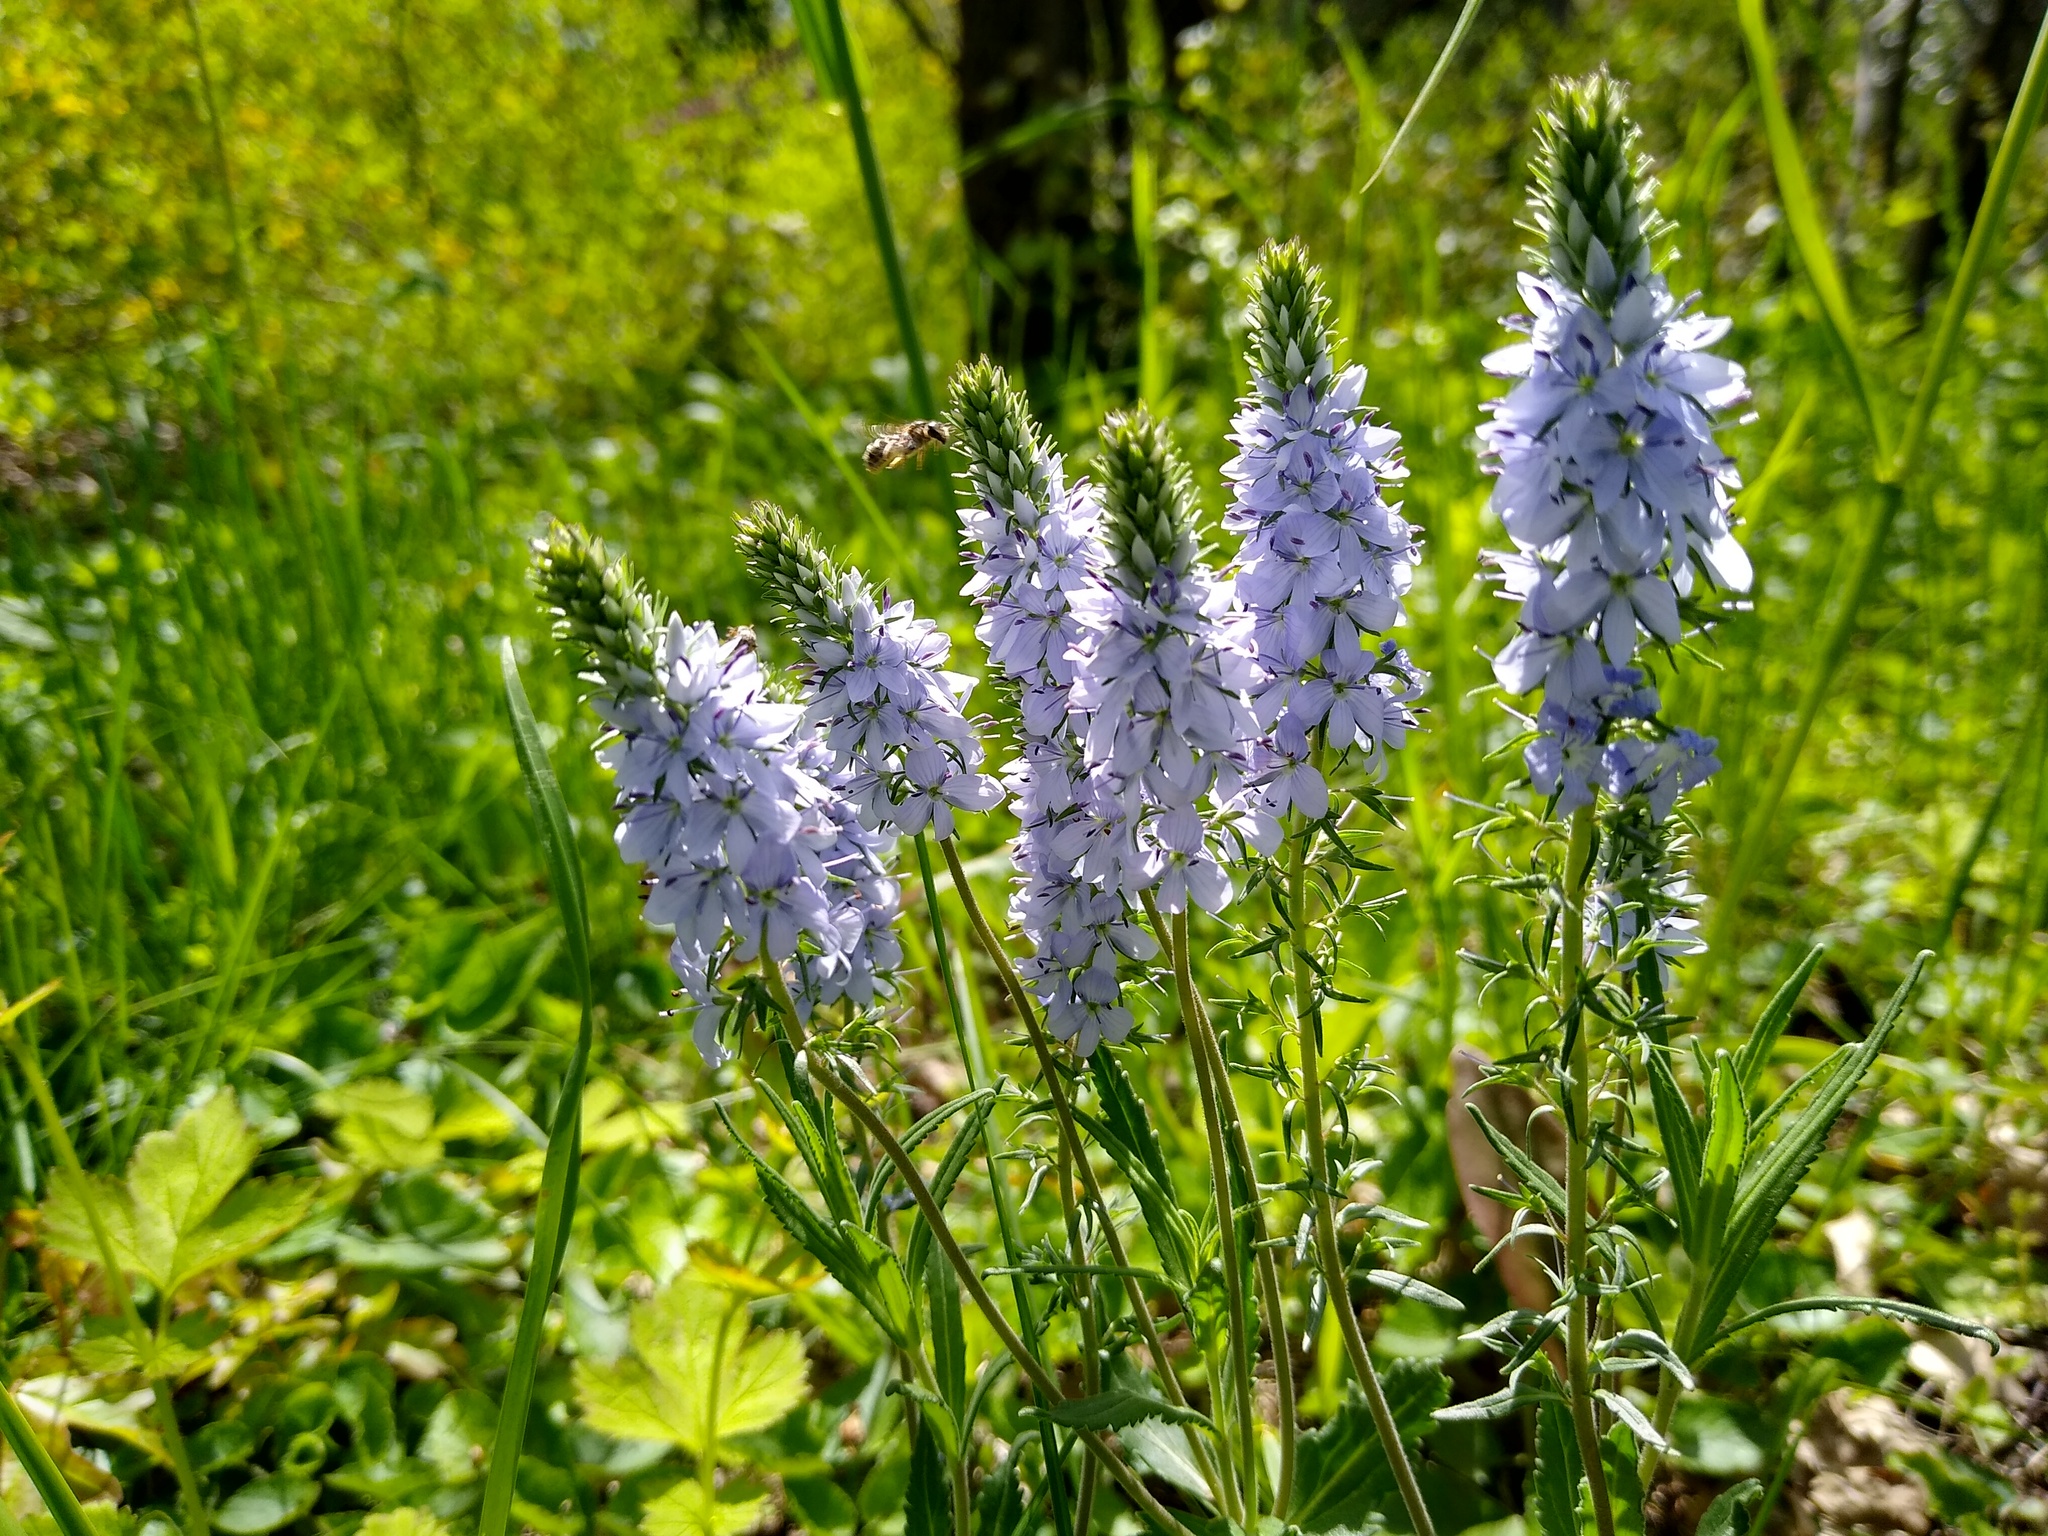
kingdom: Plantae
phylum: Tracheophyta
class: Magnoliopsida
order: Lamiales
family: Plantaginaceae
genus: Veronica
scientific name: Veronica prostrata
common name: Prostrate speedwell
